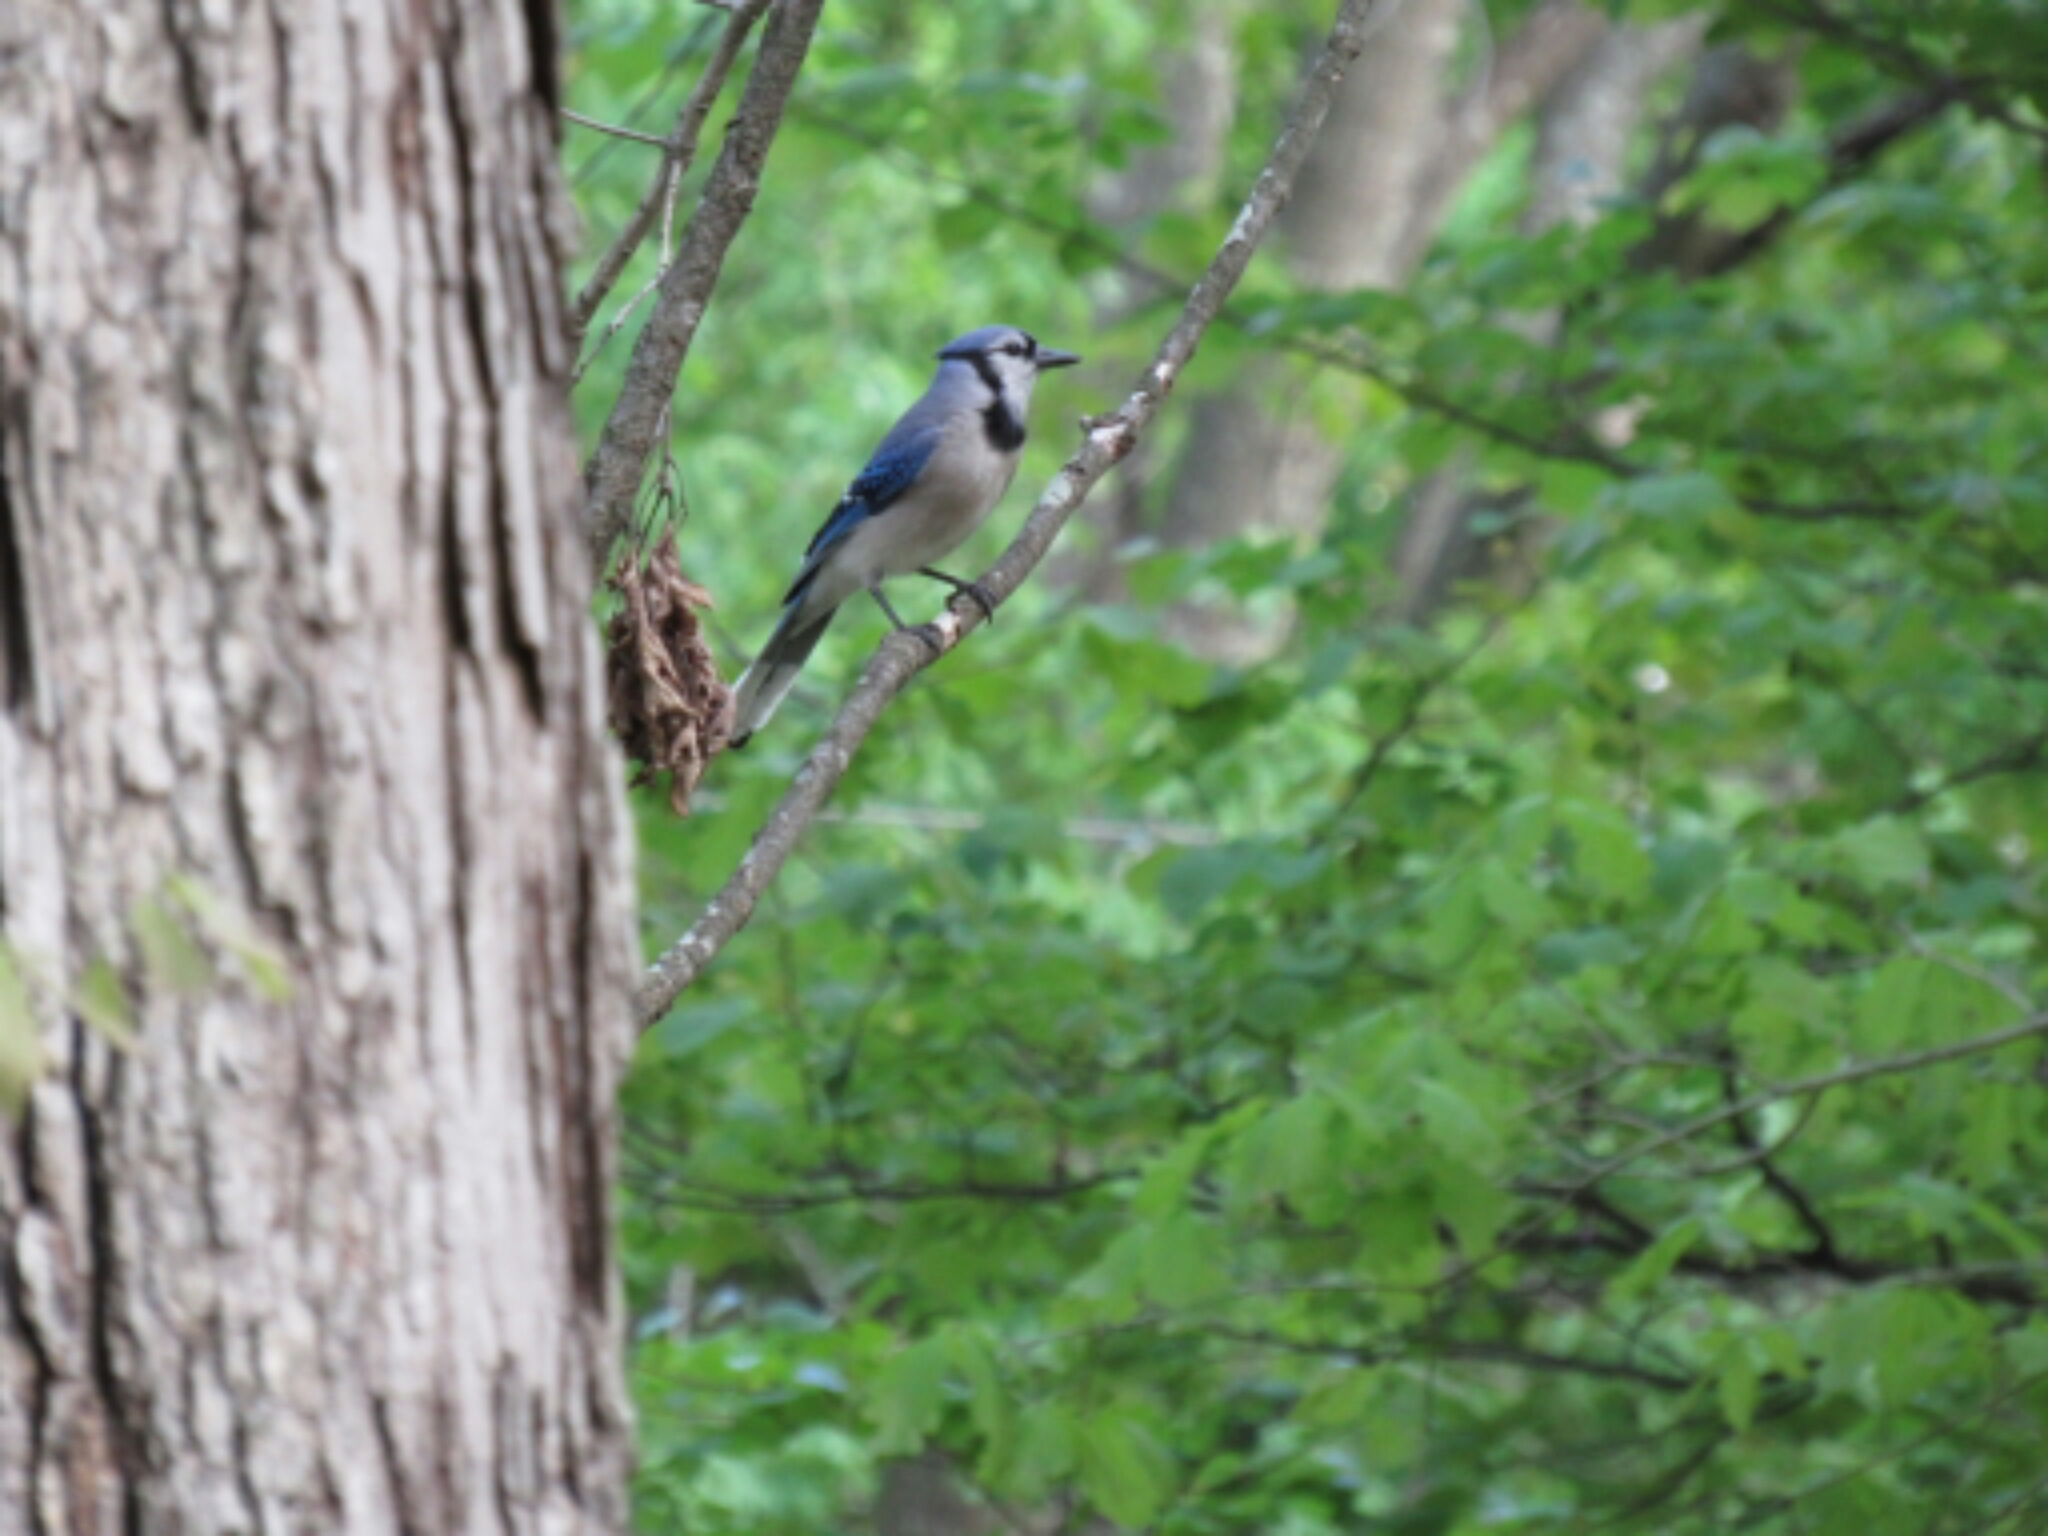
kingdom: Animalia
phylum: Chordata
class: Aves
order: Passeriformes
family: Corvidae
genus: Cyanocitta
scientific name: Cyanocitta cristata
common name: Blue jay
